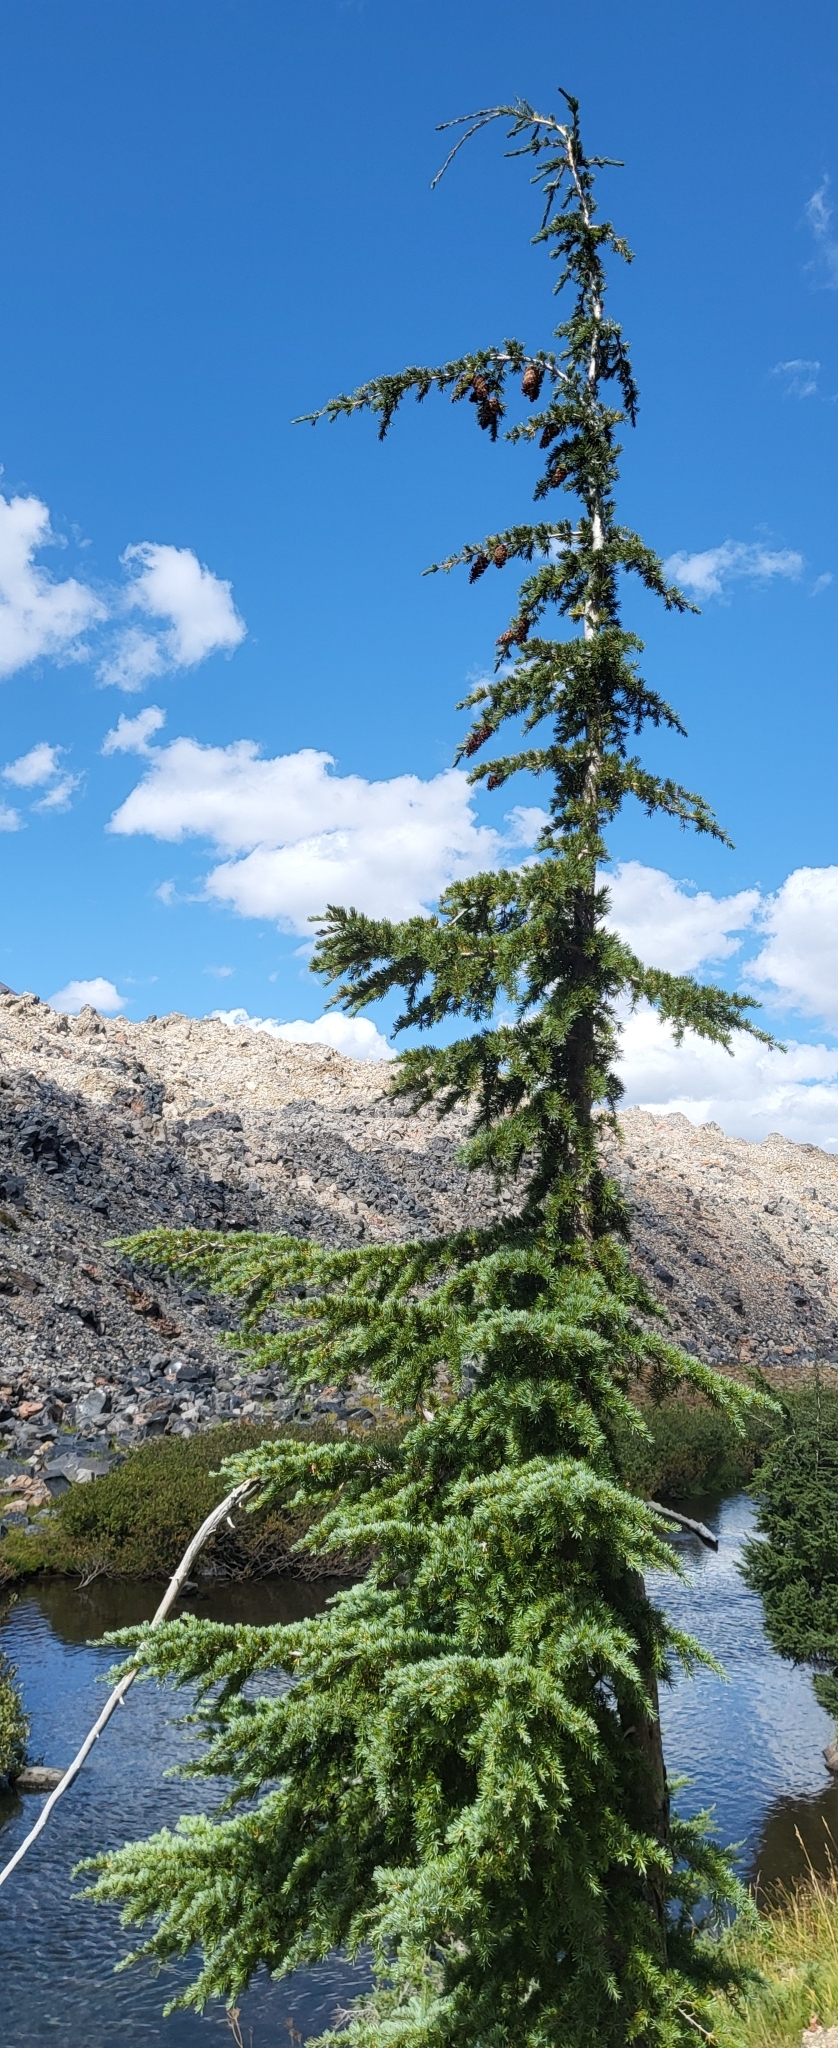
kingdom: Plantae
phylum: Tracheophyta
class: Pinopsida
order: Pinales
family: Pinaceae
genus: Tsuga
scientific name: Tsuga mertensiana
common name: Mountain hemlock
